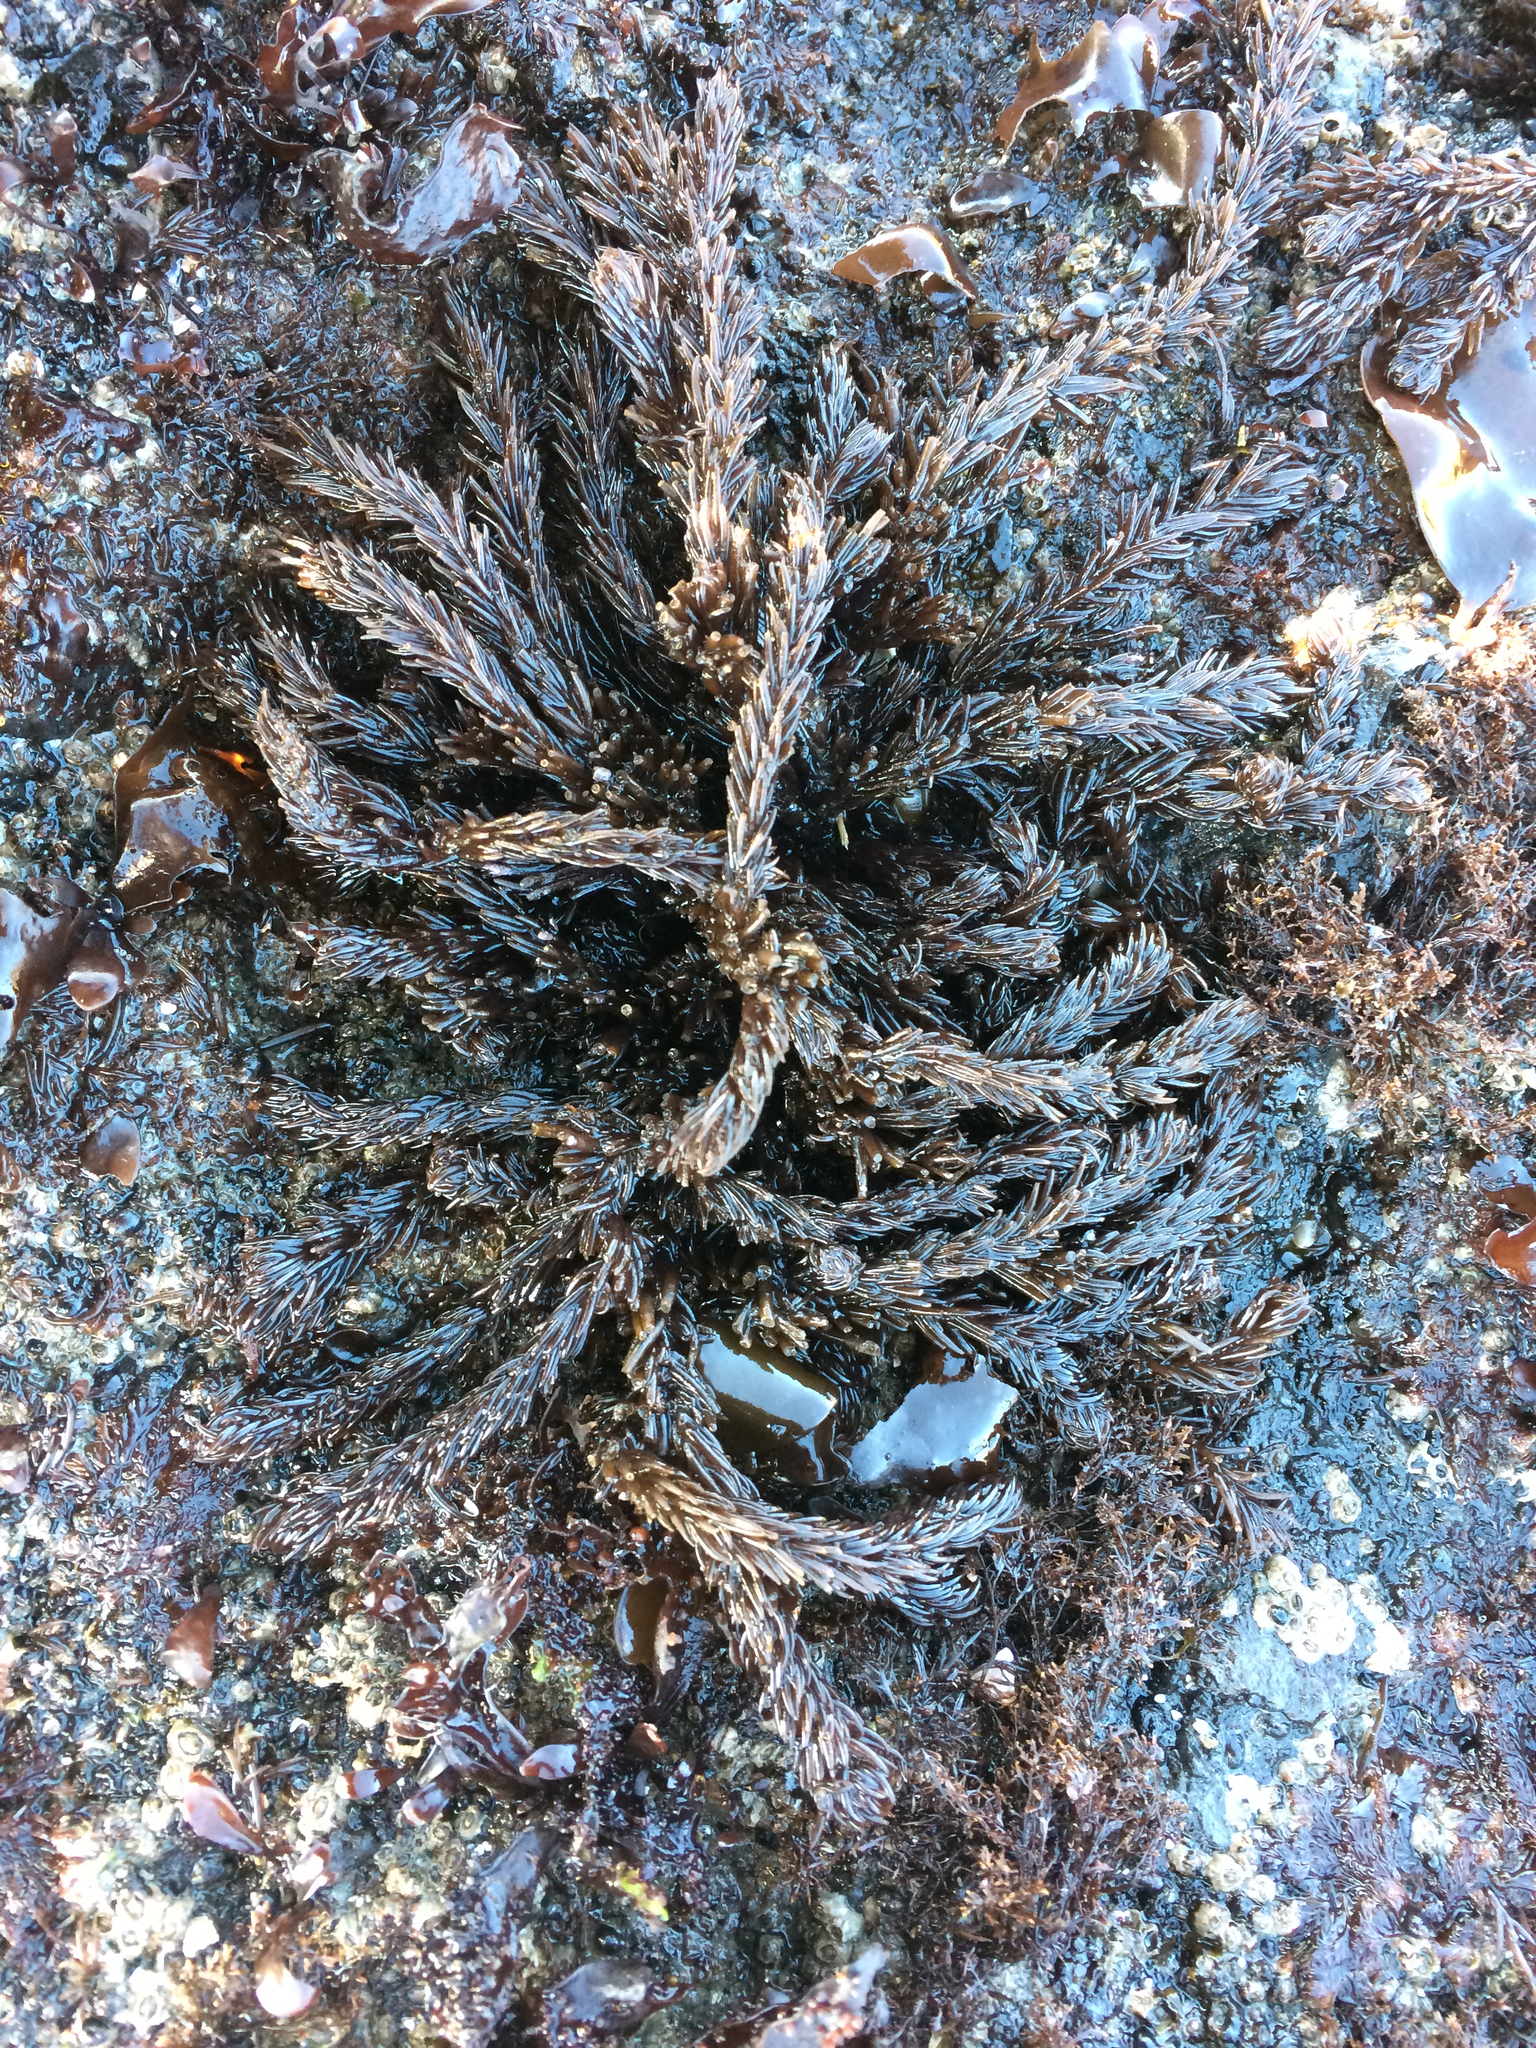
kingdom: Plantae
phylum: Rhodophyta
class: Florideophyceae
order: Ceramiales
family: Rhodomelaceae
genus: Neorhodomela
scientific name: Neorhodomela larix
